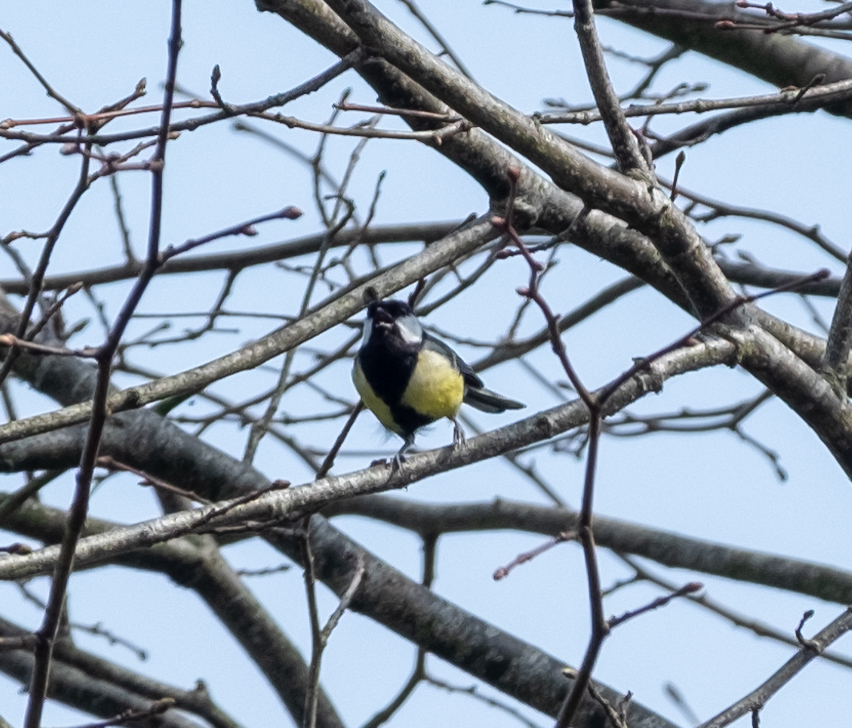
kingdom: Animalia
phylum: Chordata
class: Aves
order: Passeriformes
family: Paridae
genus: Parus
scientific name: Parus major
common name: Great tit
